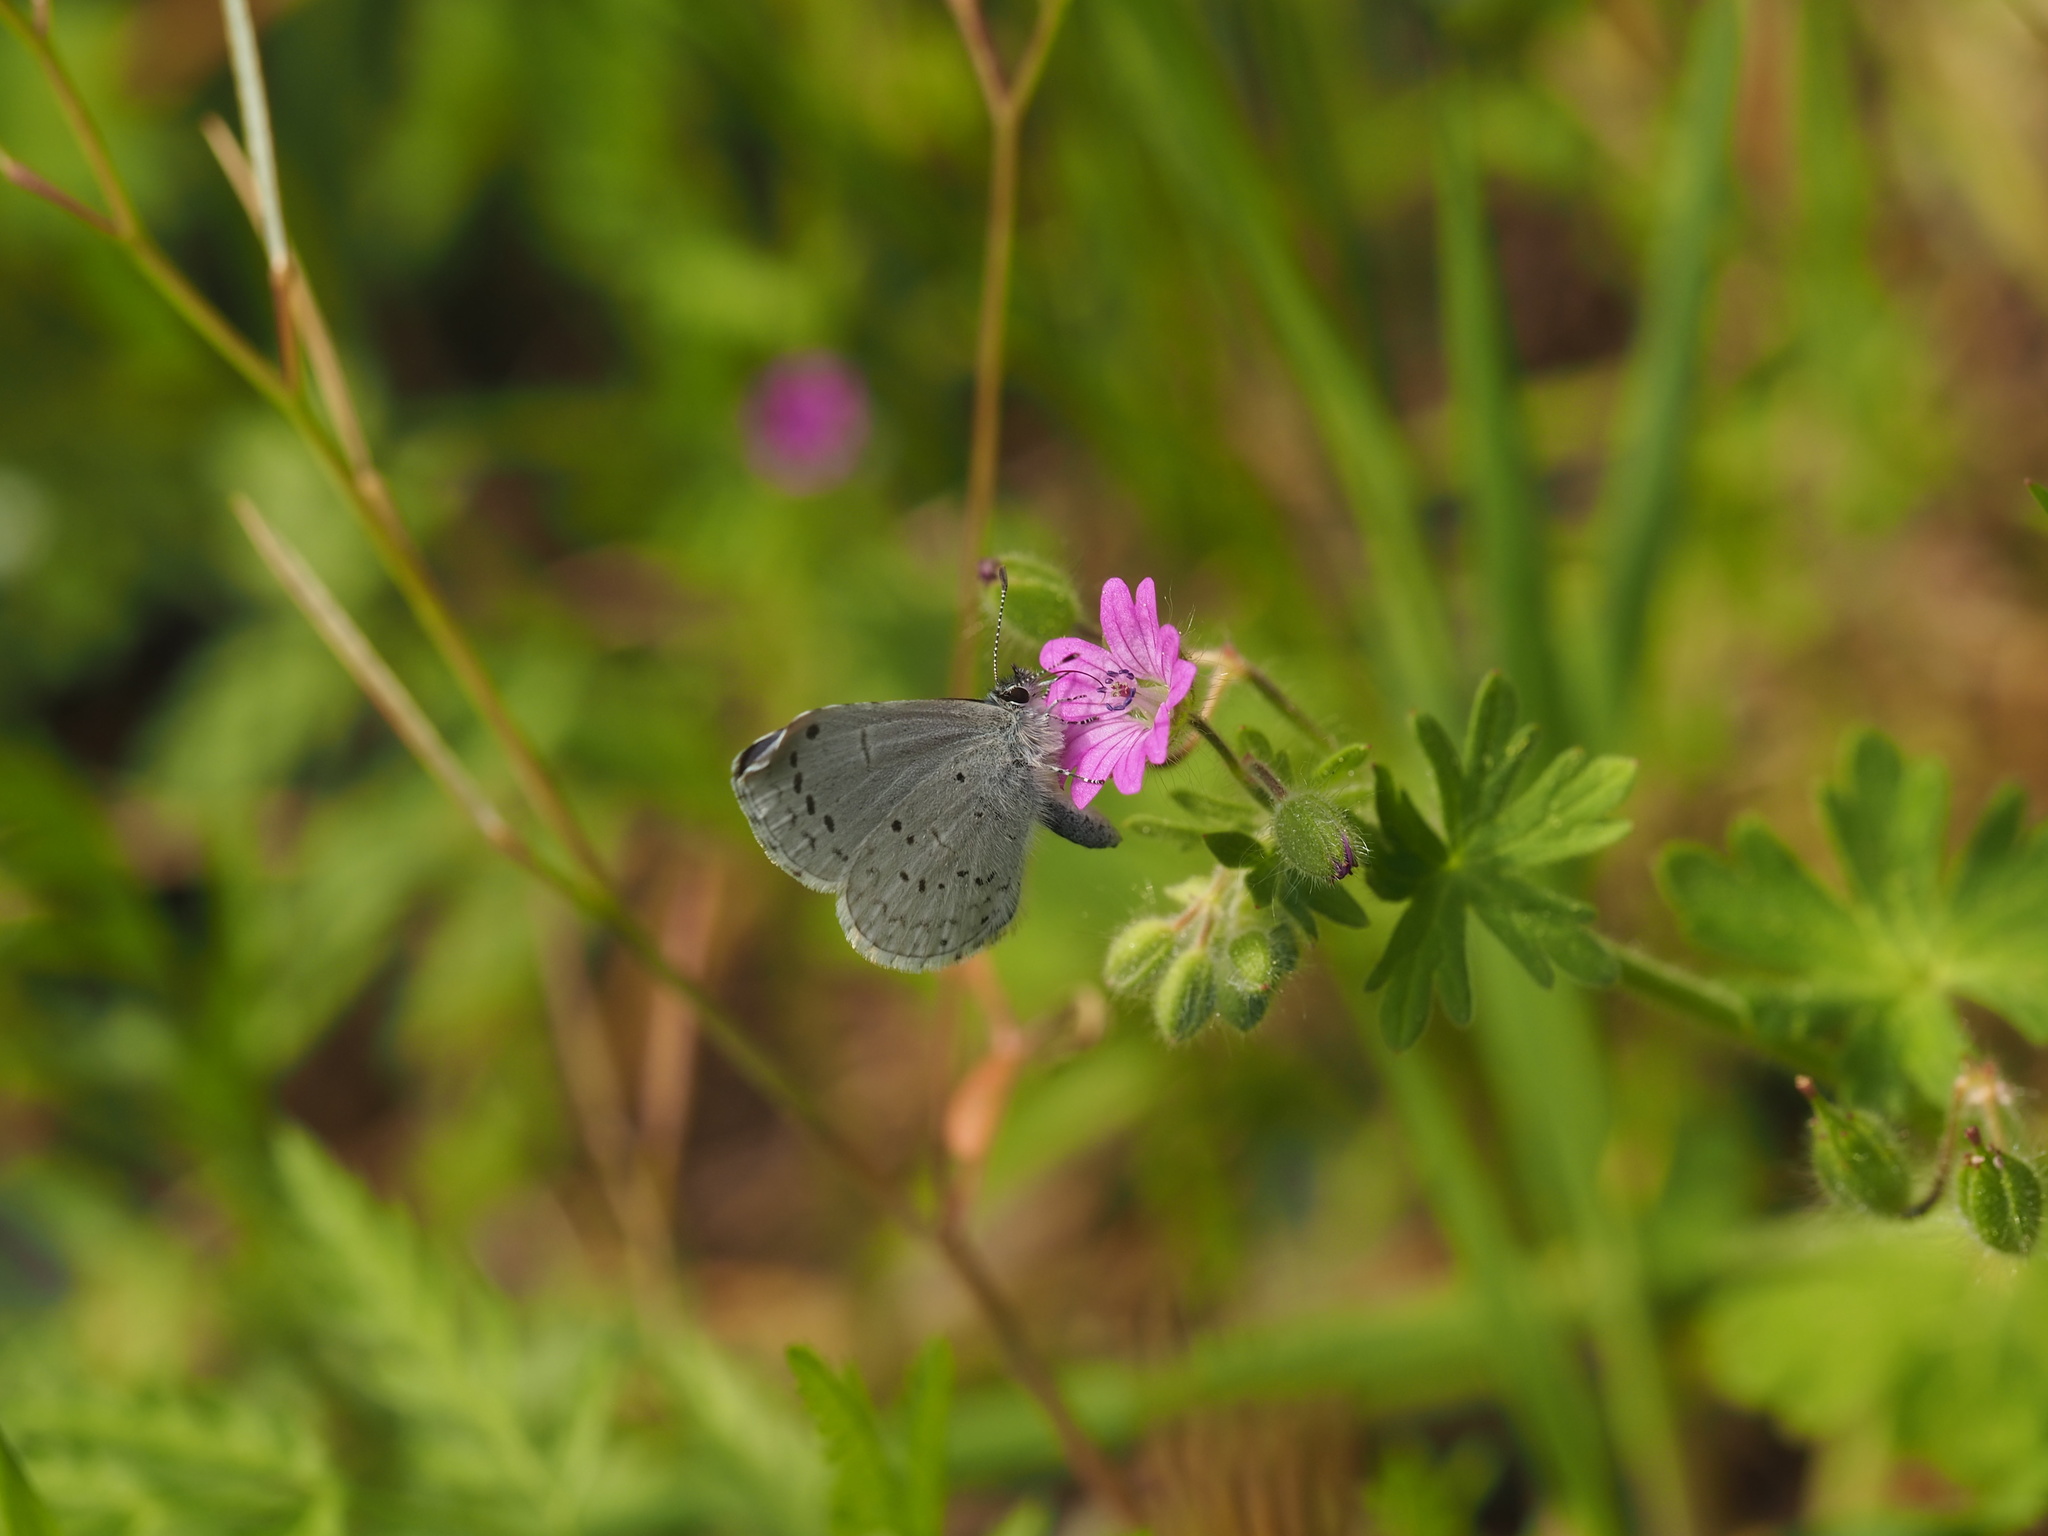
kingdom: Animalia
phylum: Arthropoda
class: Insecta
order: Lepidoptera
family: Lycaenidae
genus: Celastrina
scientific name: Celastrina ladon
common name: Spring azure
